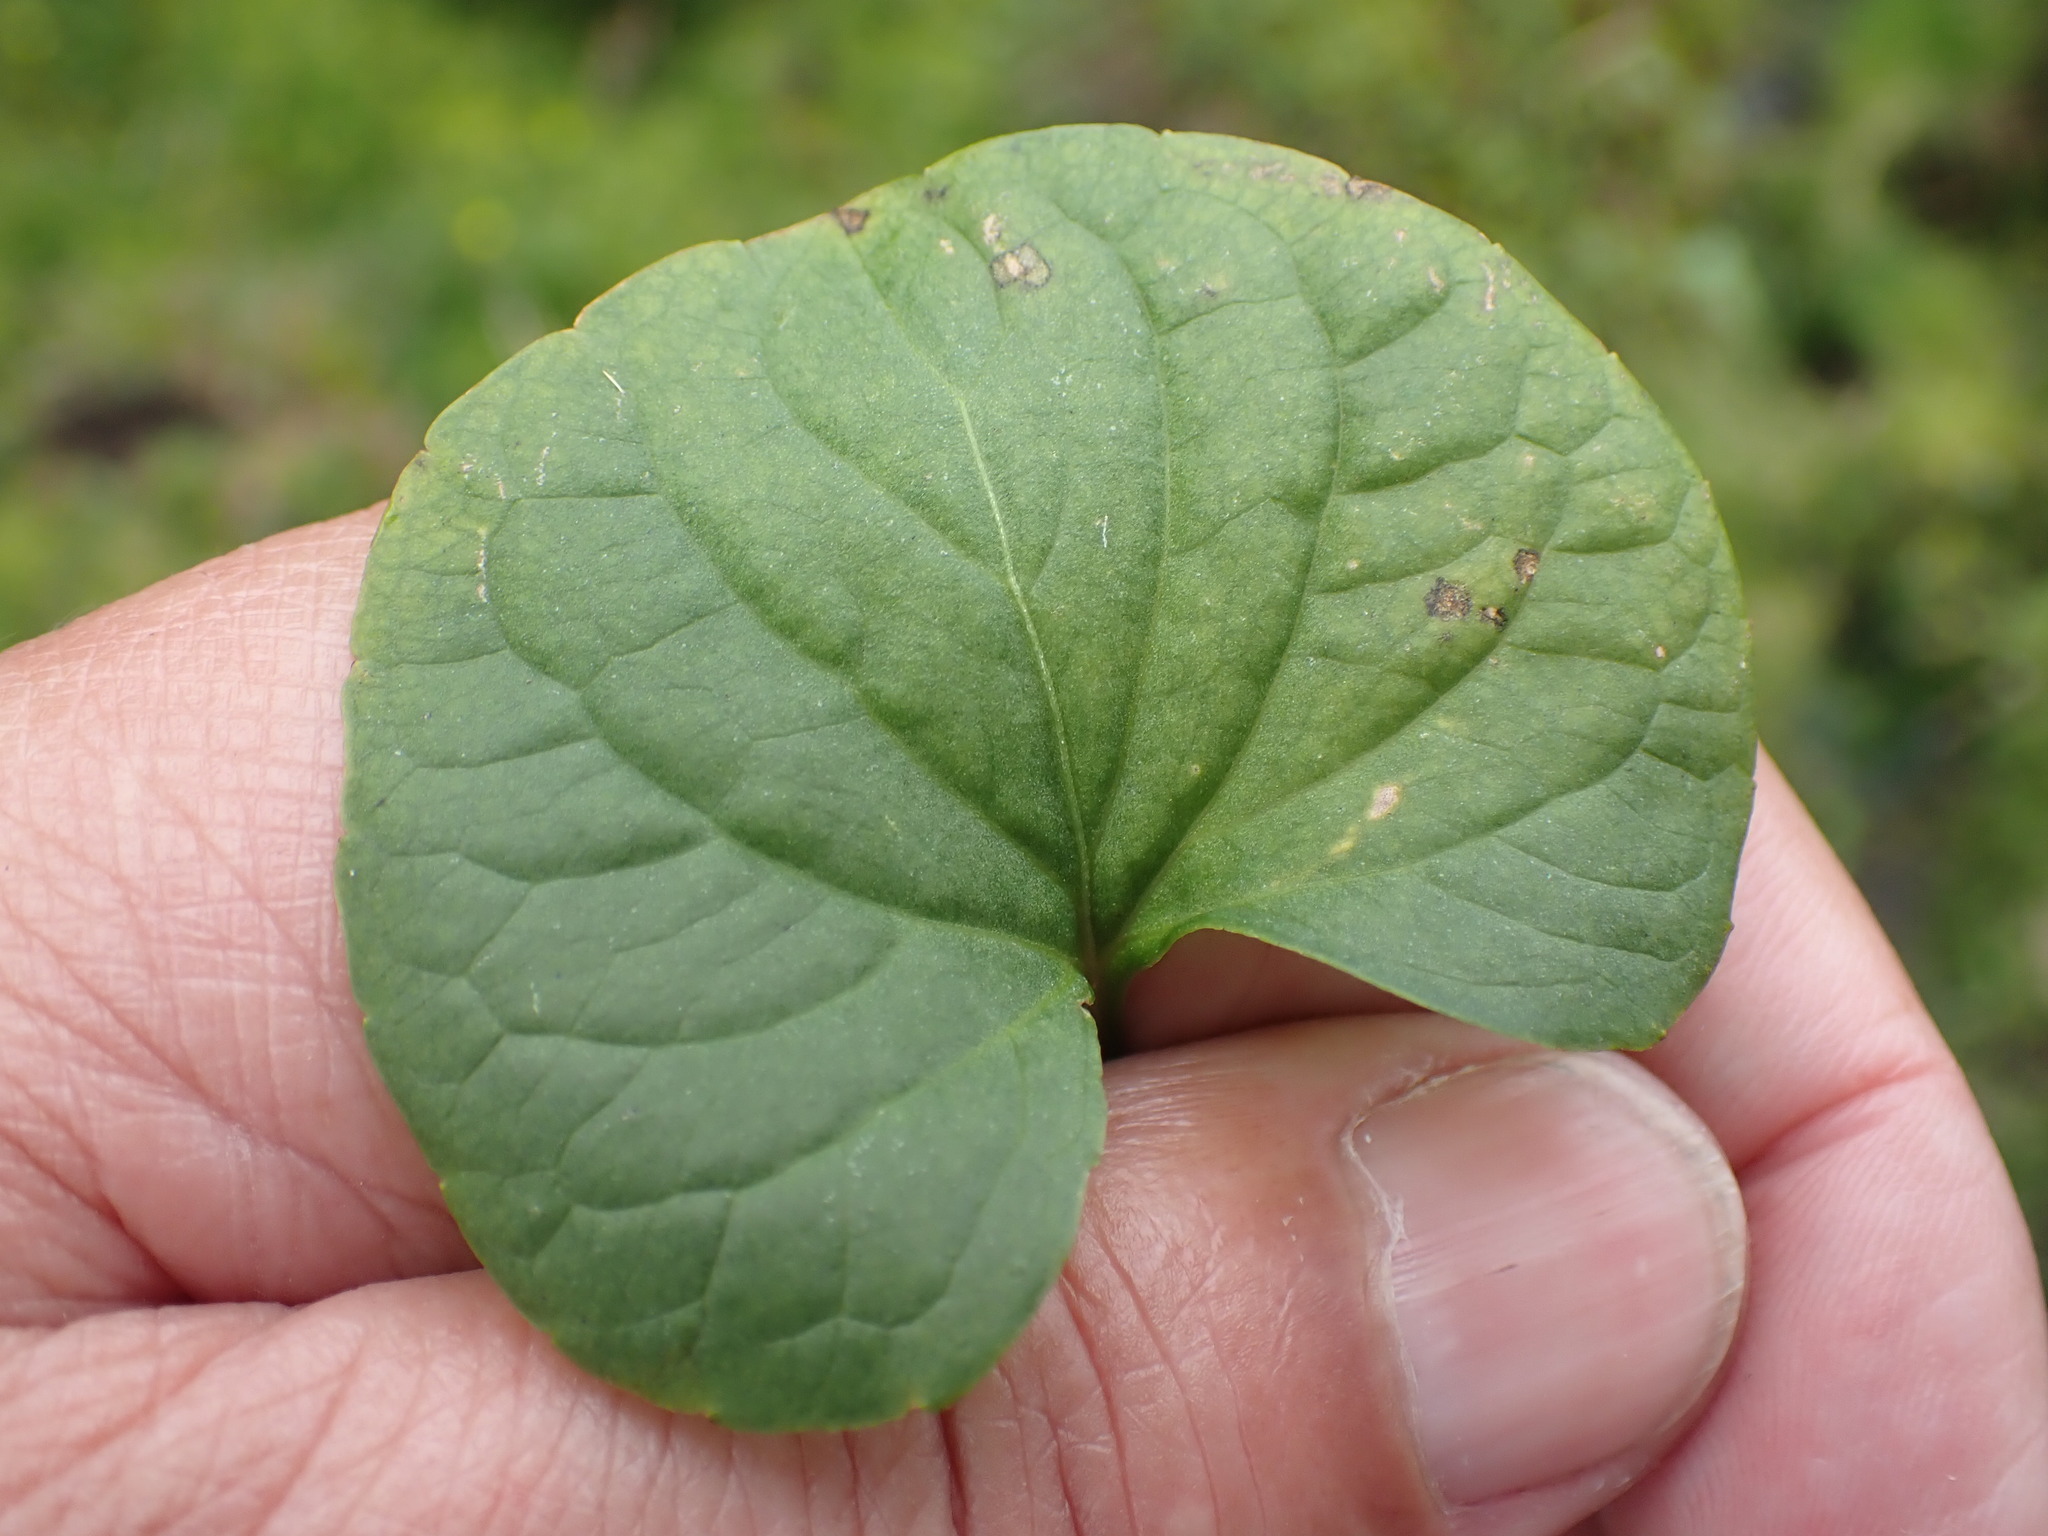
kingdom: Plantae
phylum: Tracheophyta
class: Magnoliopsida
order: Malpighiales
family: Violaceae
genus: Viola
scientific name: Viola palustris
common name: Marsh violet
